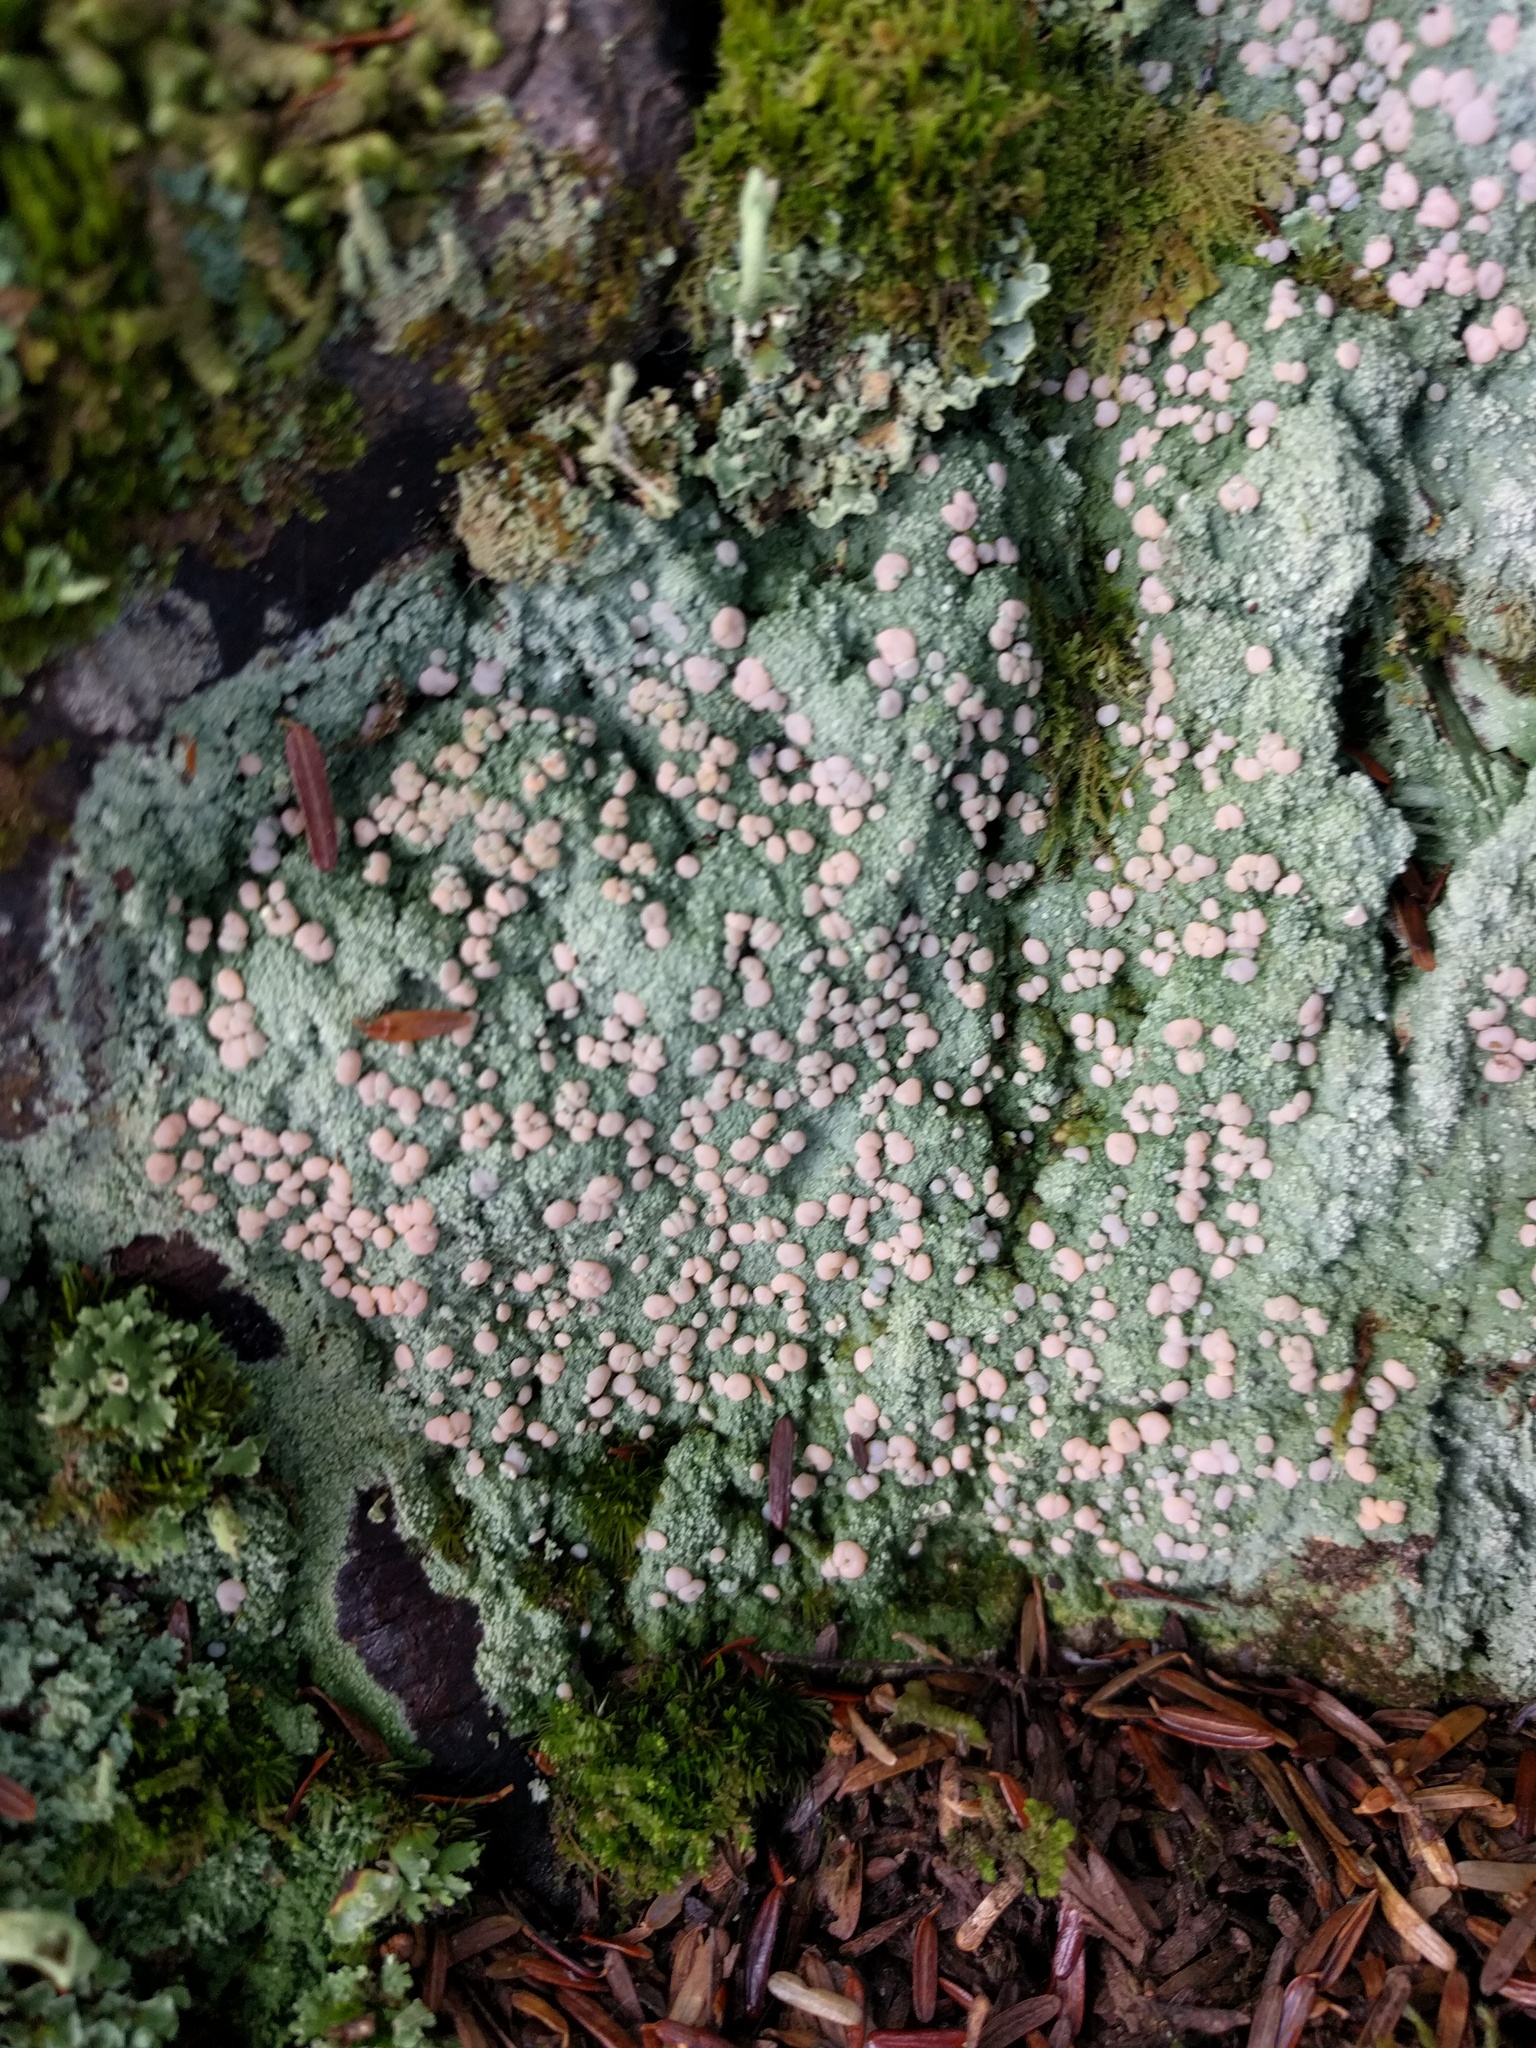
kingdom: Fungi
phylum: Ascomycota
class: Lecanoromycetes
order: Pertusariales
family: Icmadophilaceae
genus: Icmadophila
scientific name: Icmadophila ericetorum
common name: Candy lichen
